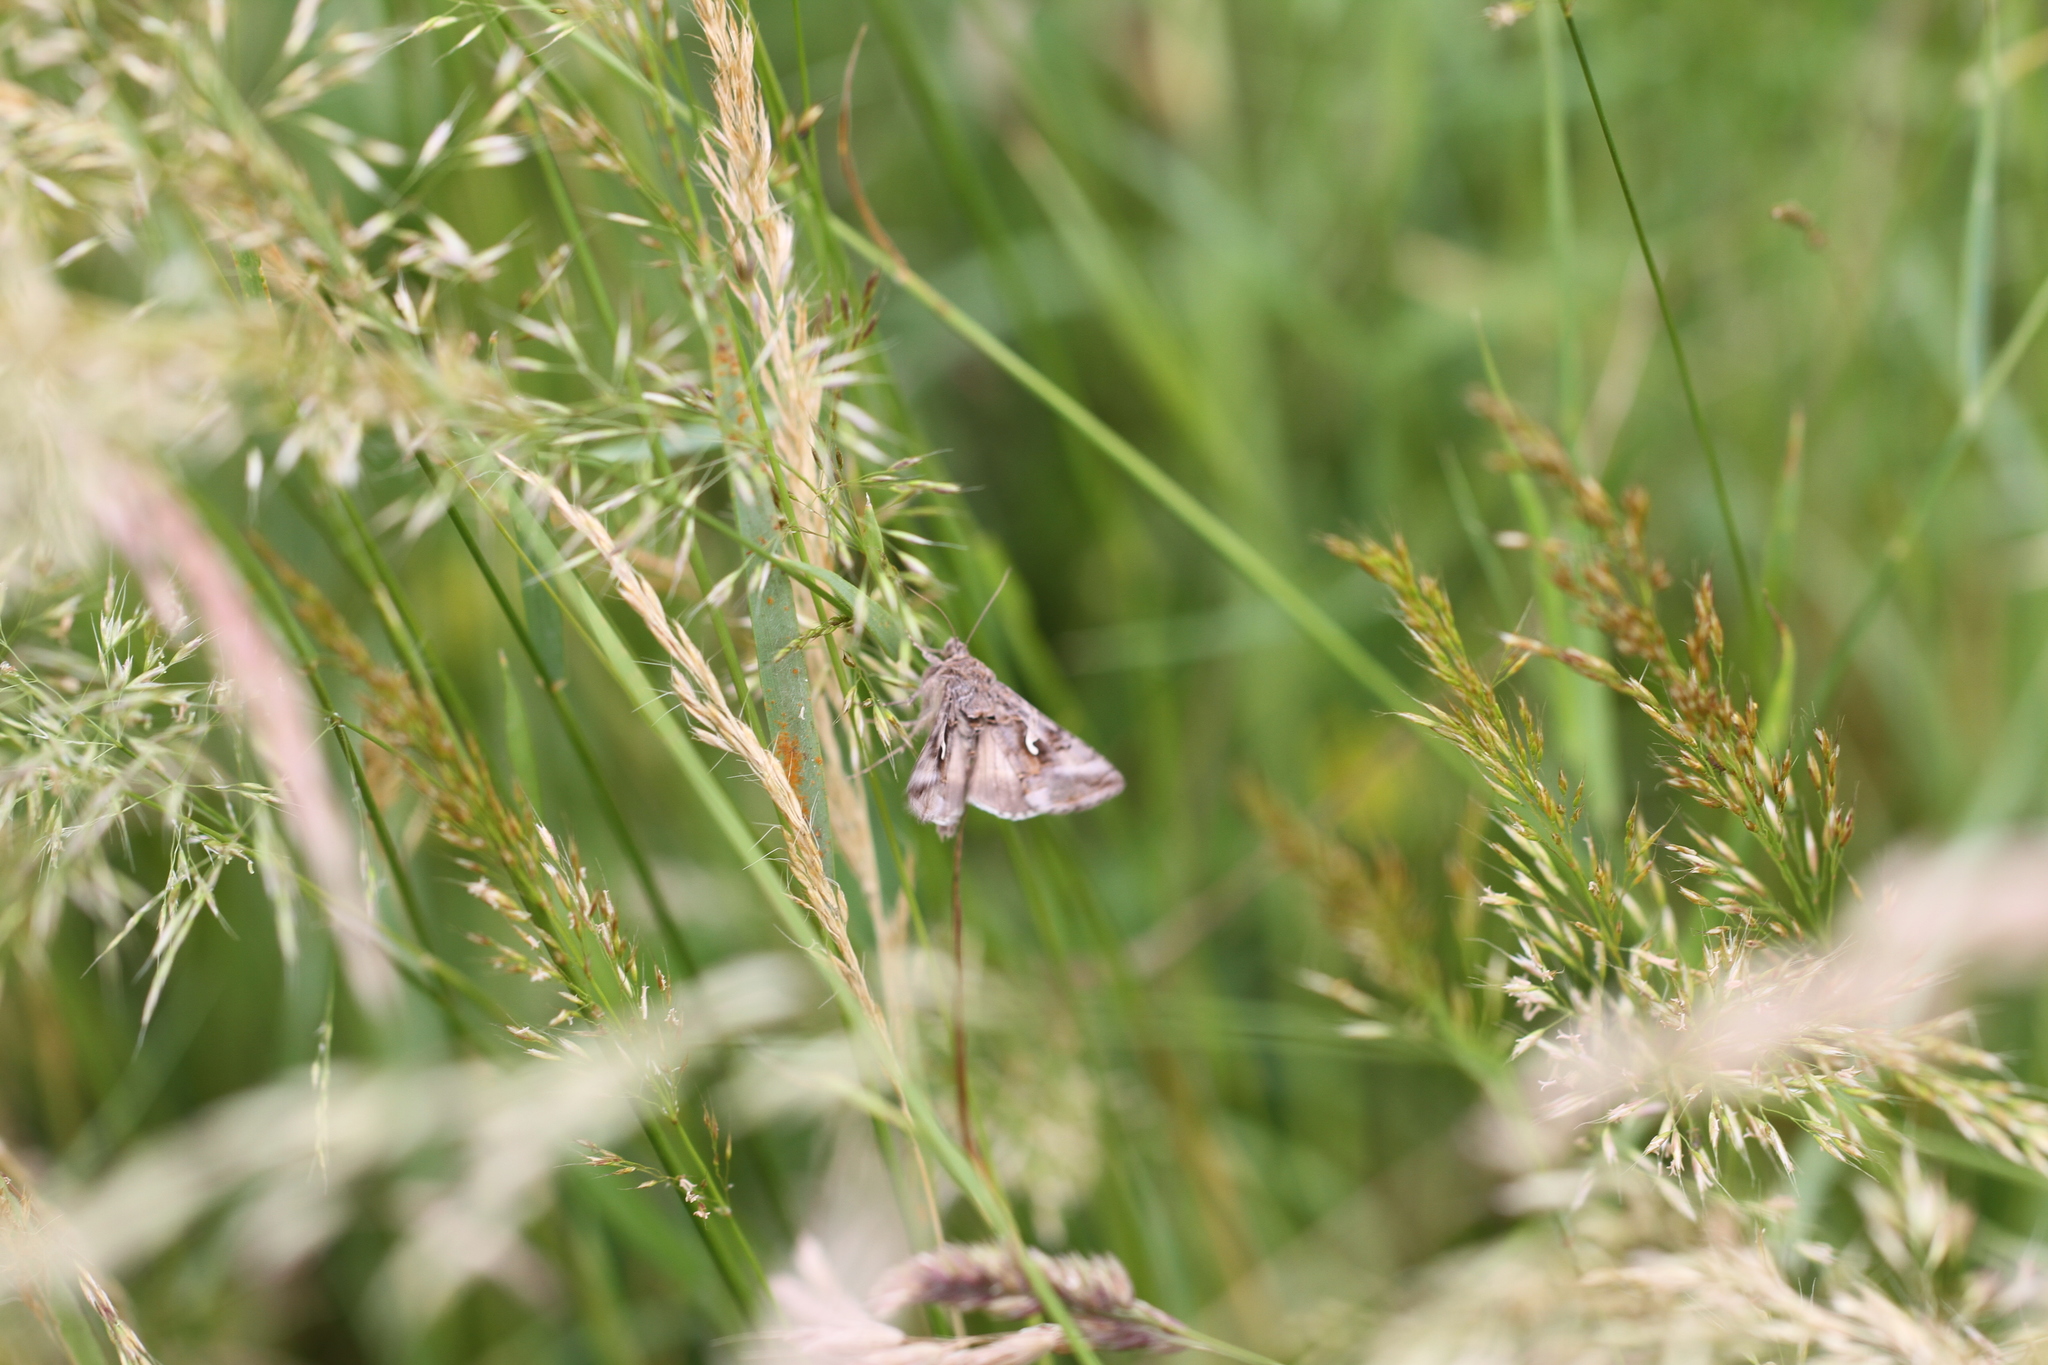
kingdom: Animalia
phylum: Arthropoda
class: Insecta
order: Lepidoptera
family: Noctuidae
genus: Autographa
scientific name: Autographa gamma
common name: Silver y
